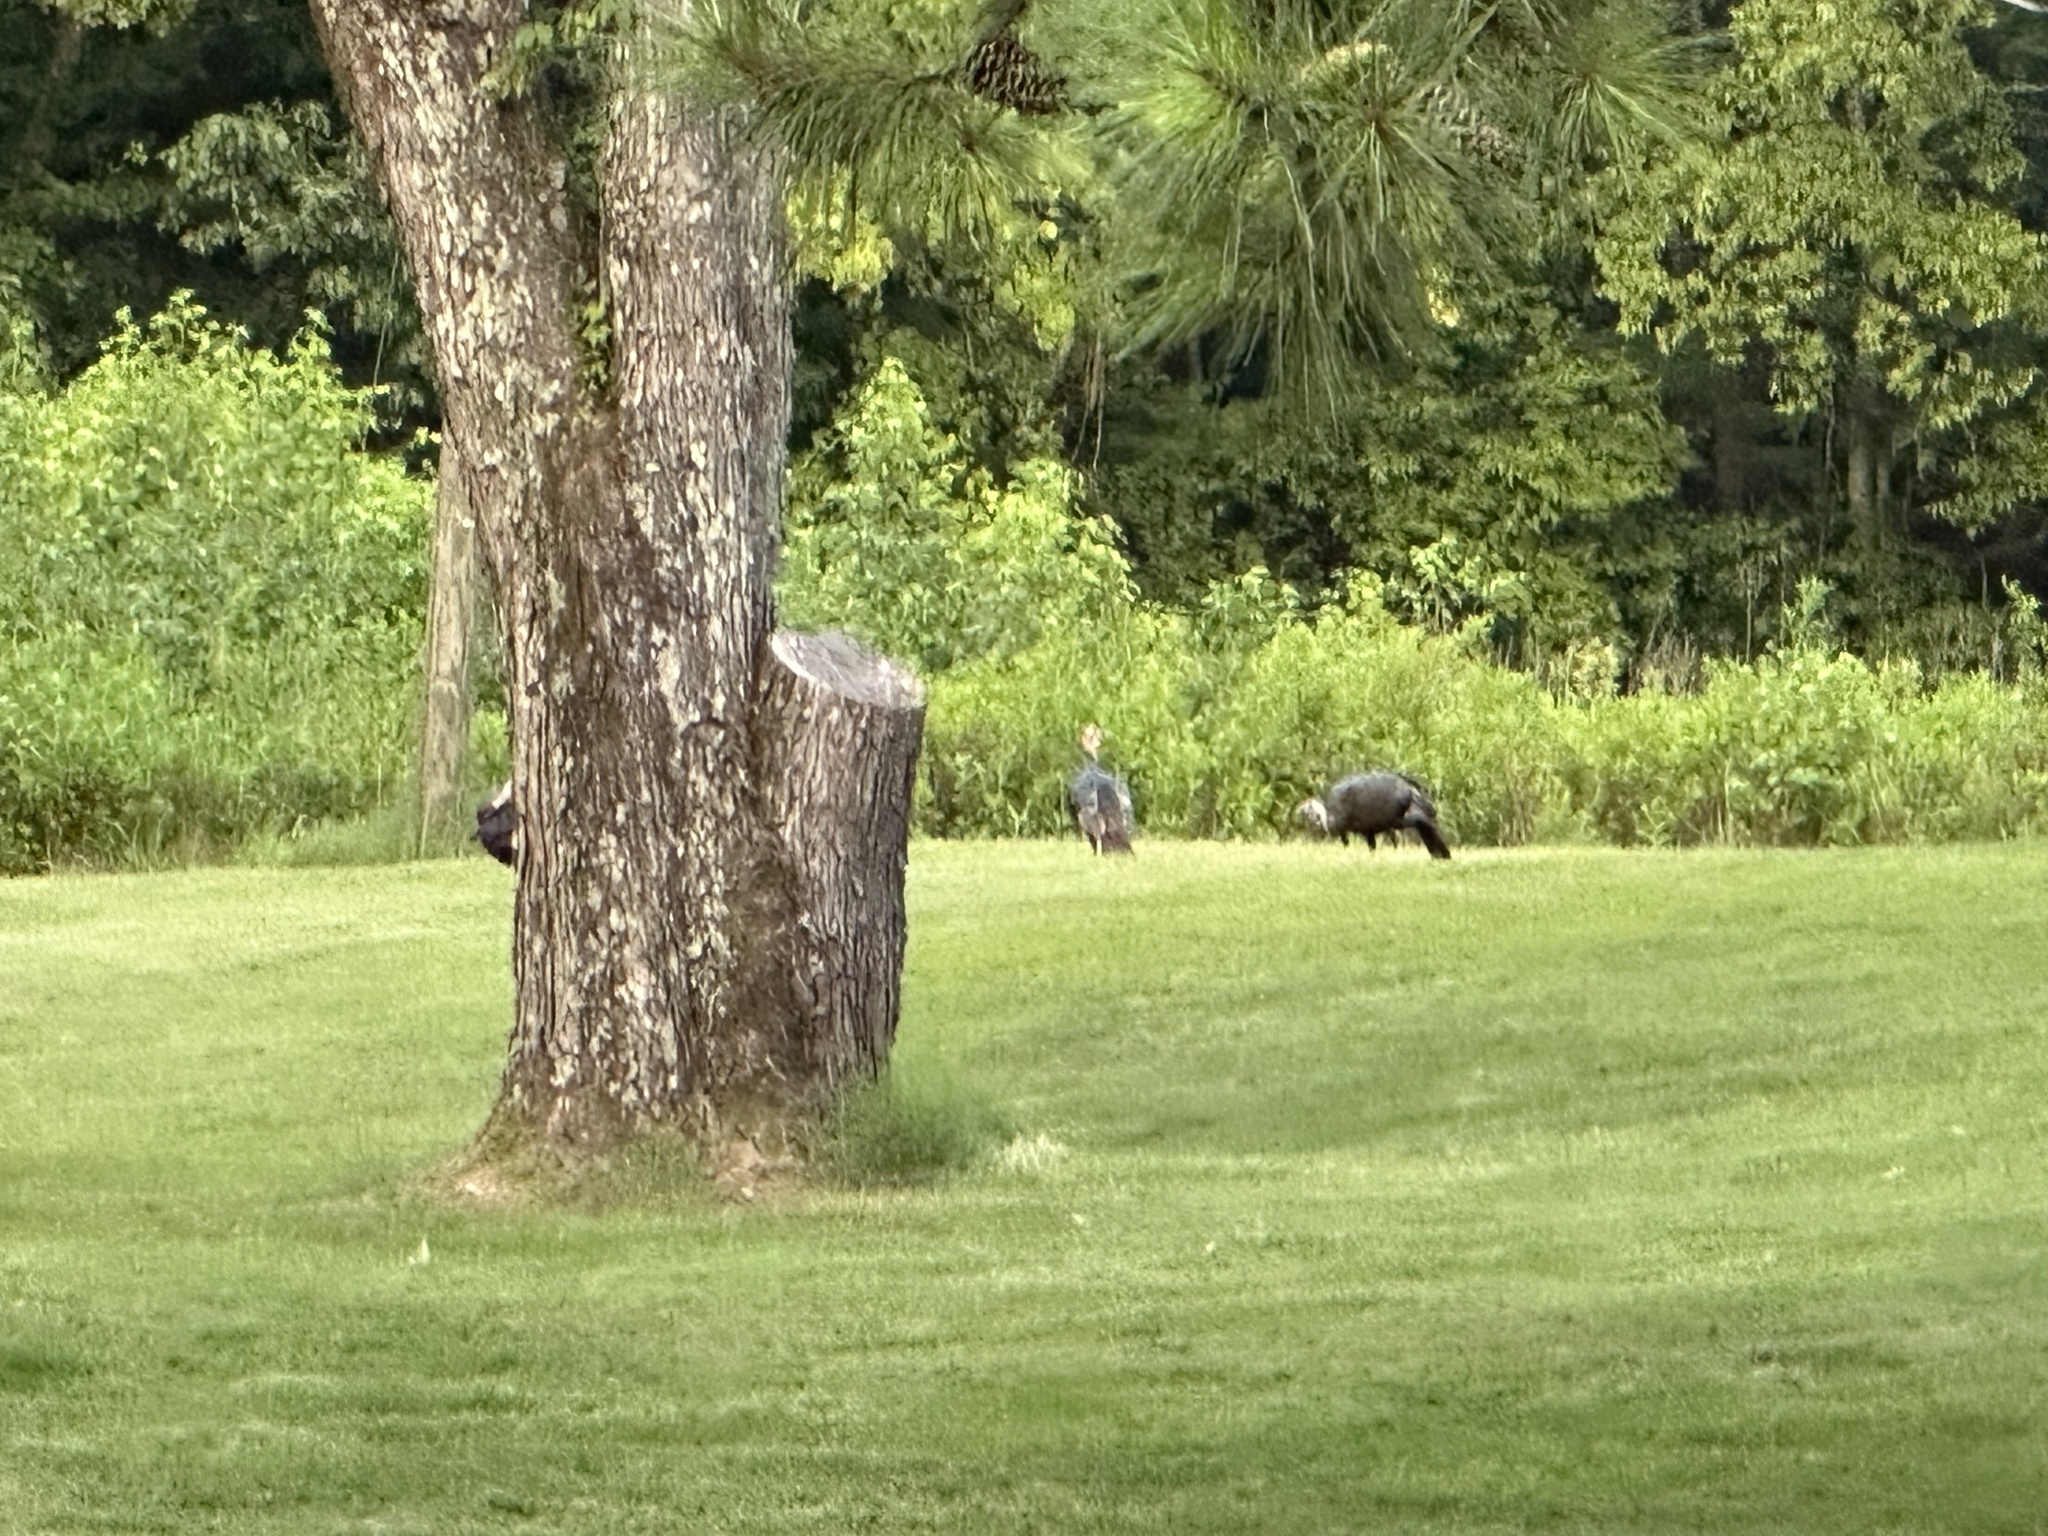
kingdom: Animalia
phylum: Chordata
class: Aves
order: Galliformes
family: Phasianidae
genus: Meleagris
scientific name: Meleagris gallopavo
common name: Wild turkey
